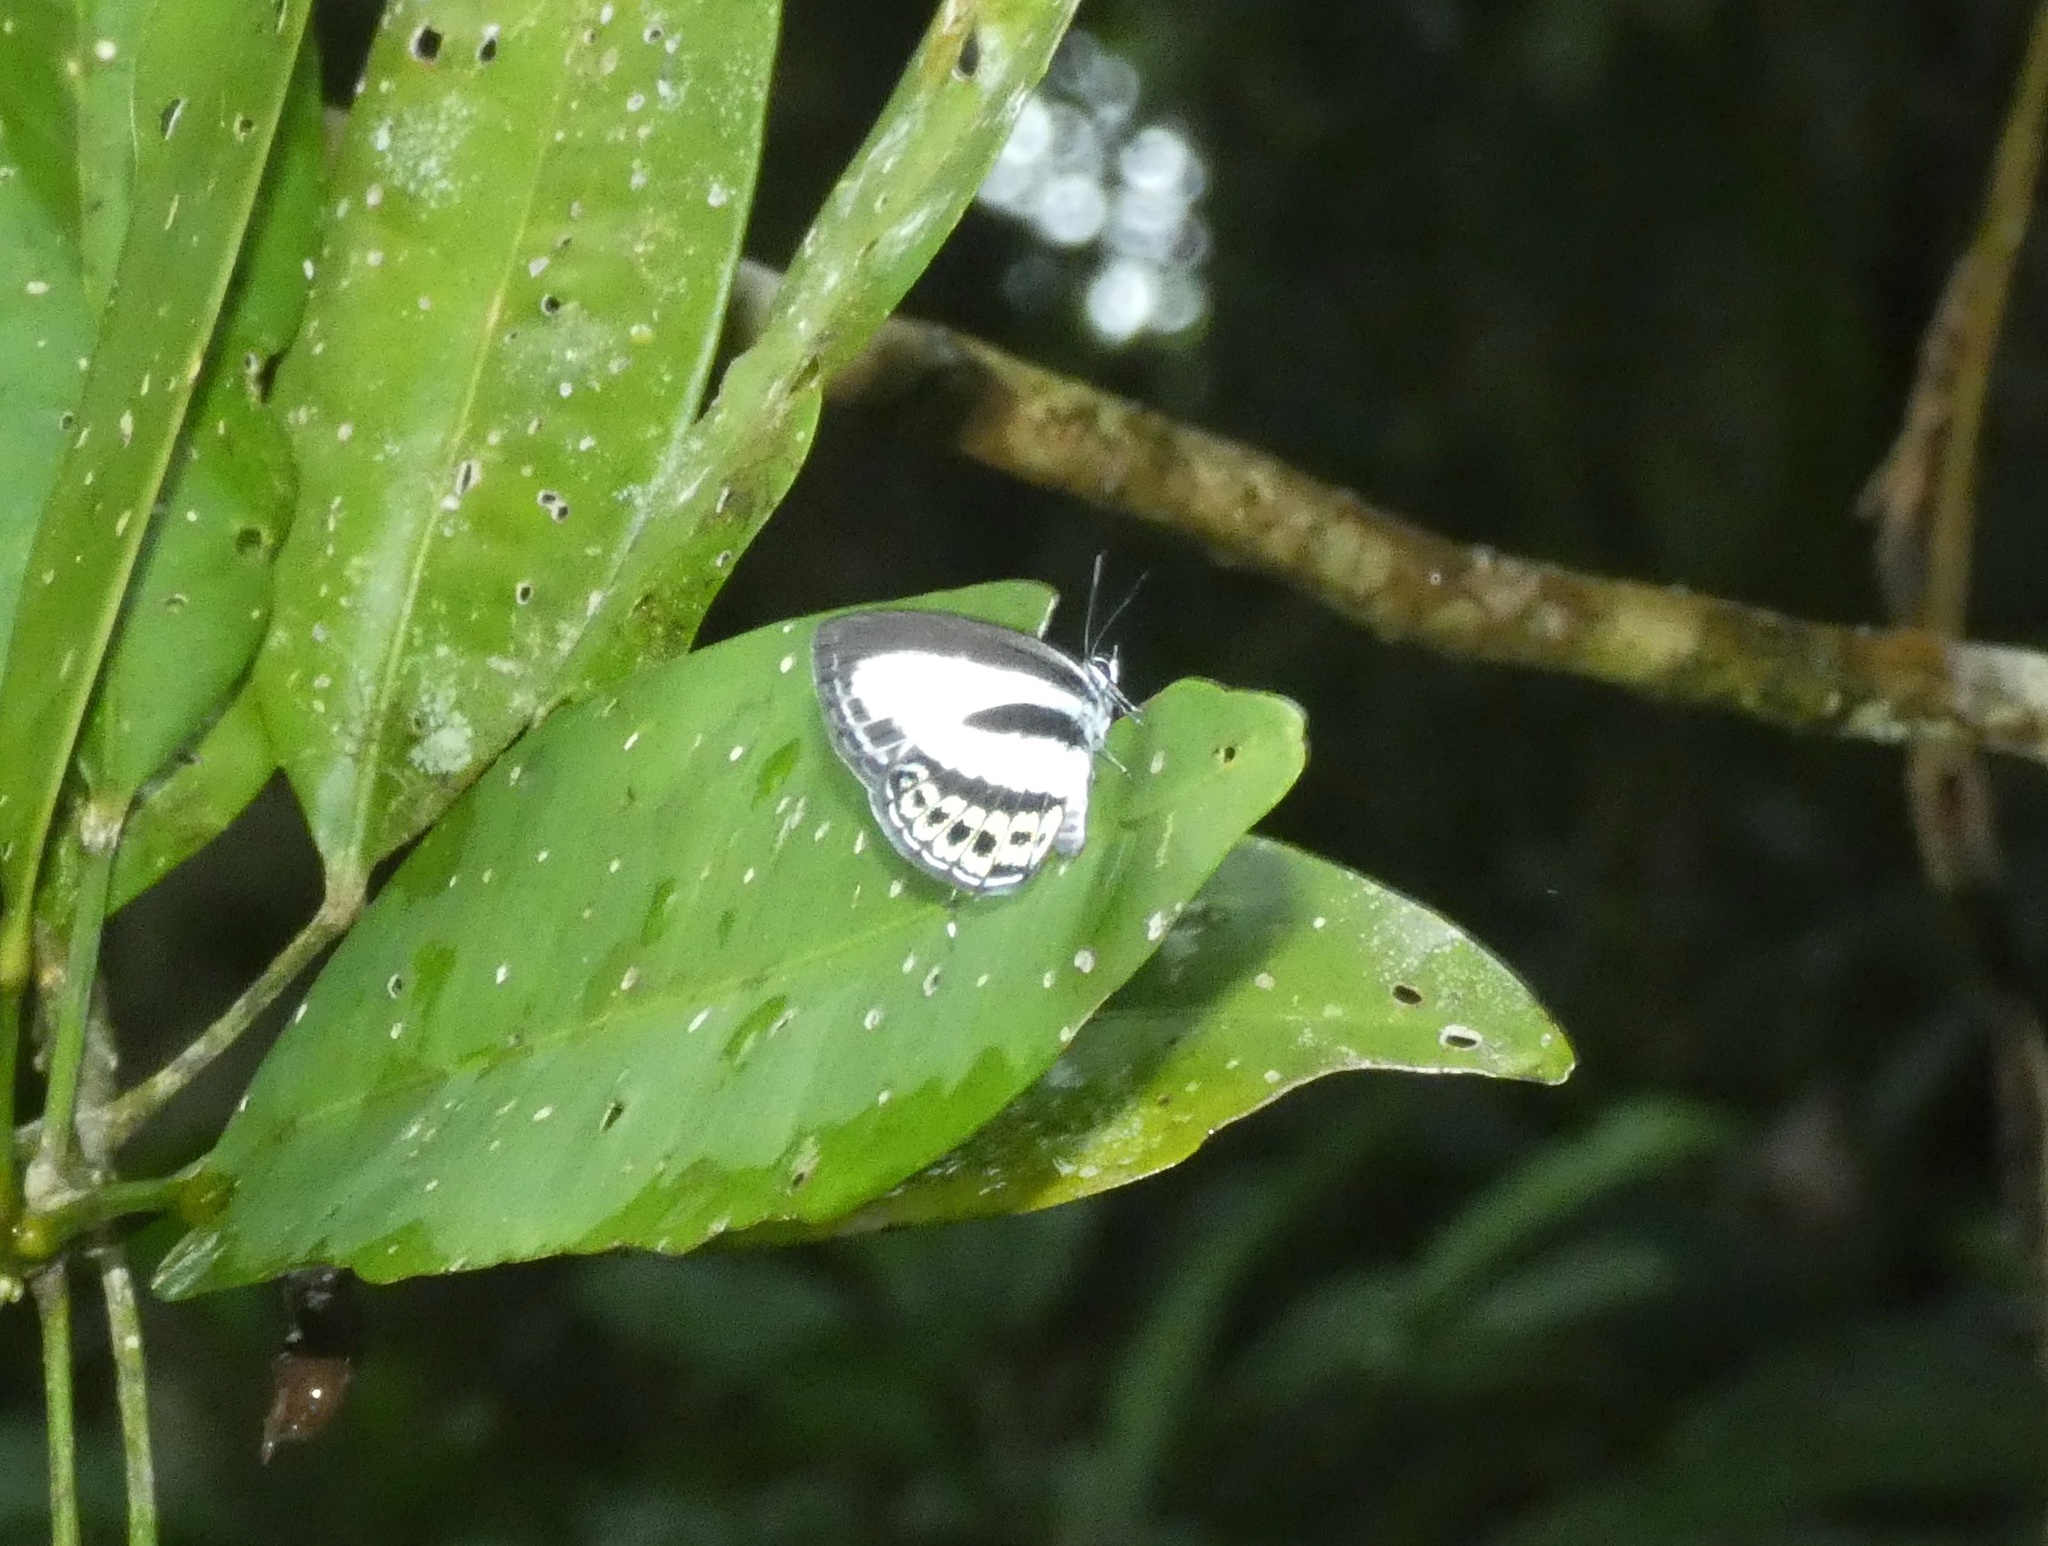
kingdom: Animalia
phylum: Arthropoda
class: Insecta
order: Lepidoptera
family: Lycaenidae
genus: Nacaduba
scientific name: Nacaduba cyanea
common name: Tailed green-banded line blue
